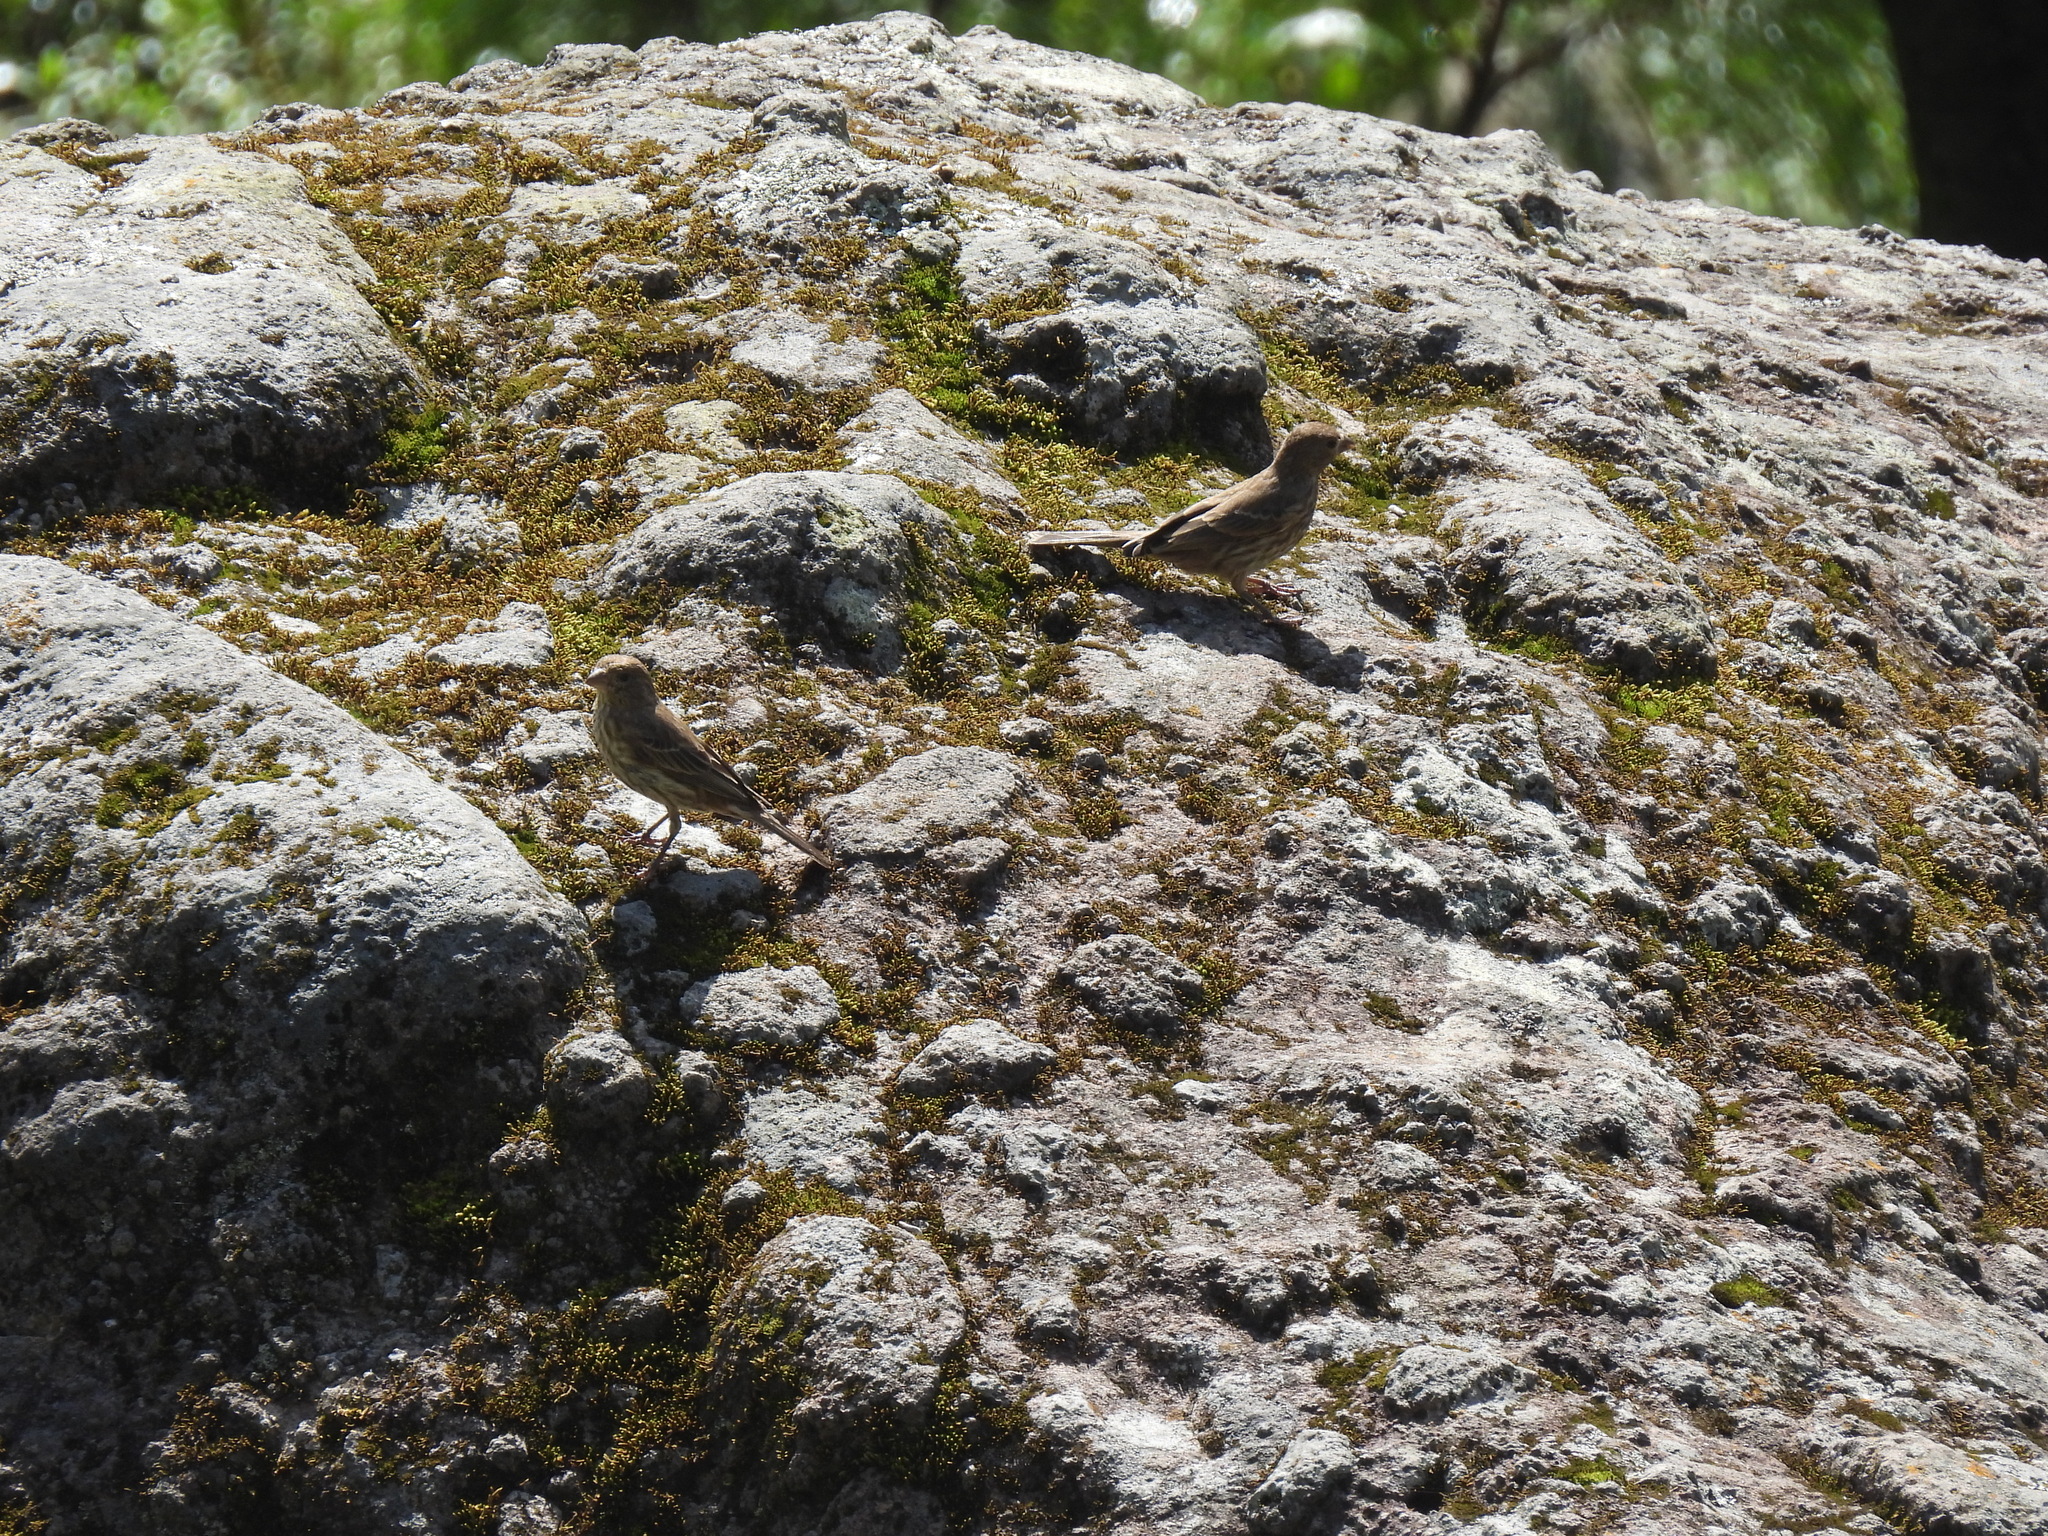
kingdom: Animalia
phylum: Chordata
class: Aves
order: Passeriformes
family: Fringillidae
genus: Haemorhous
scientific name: Haemorhous mexicanus
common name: House finch
